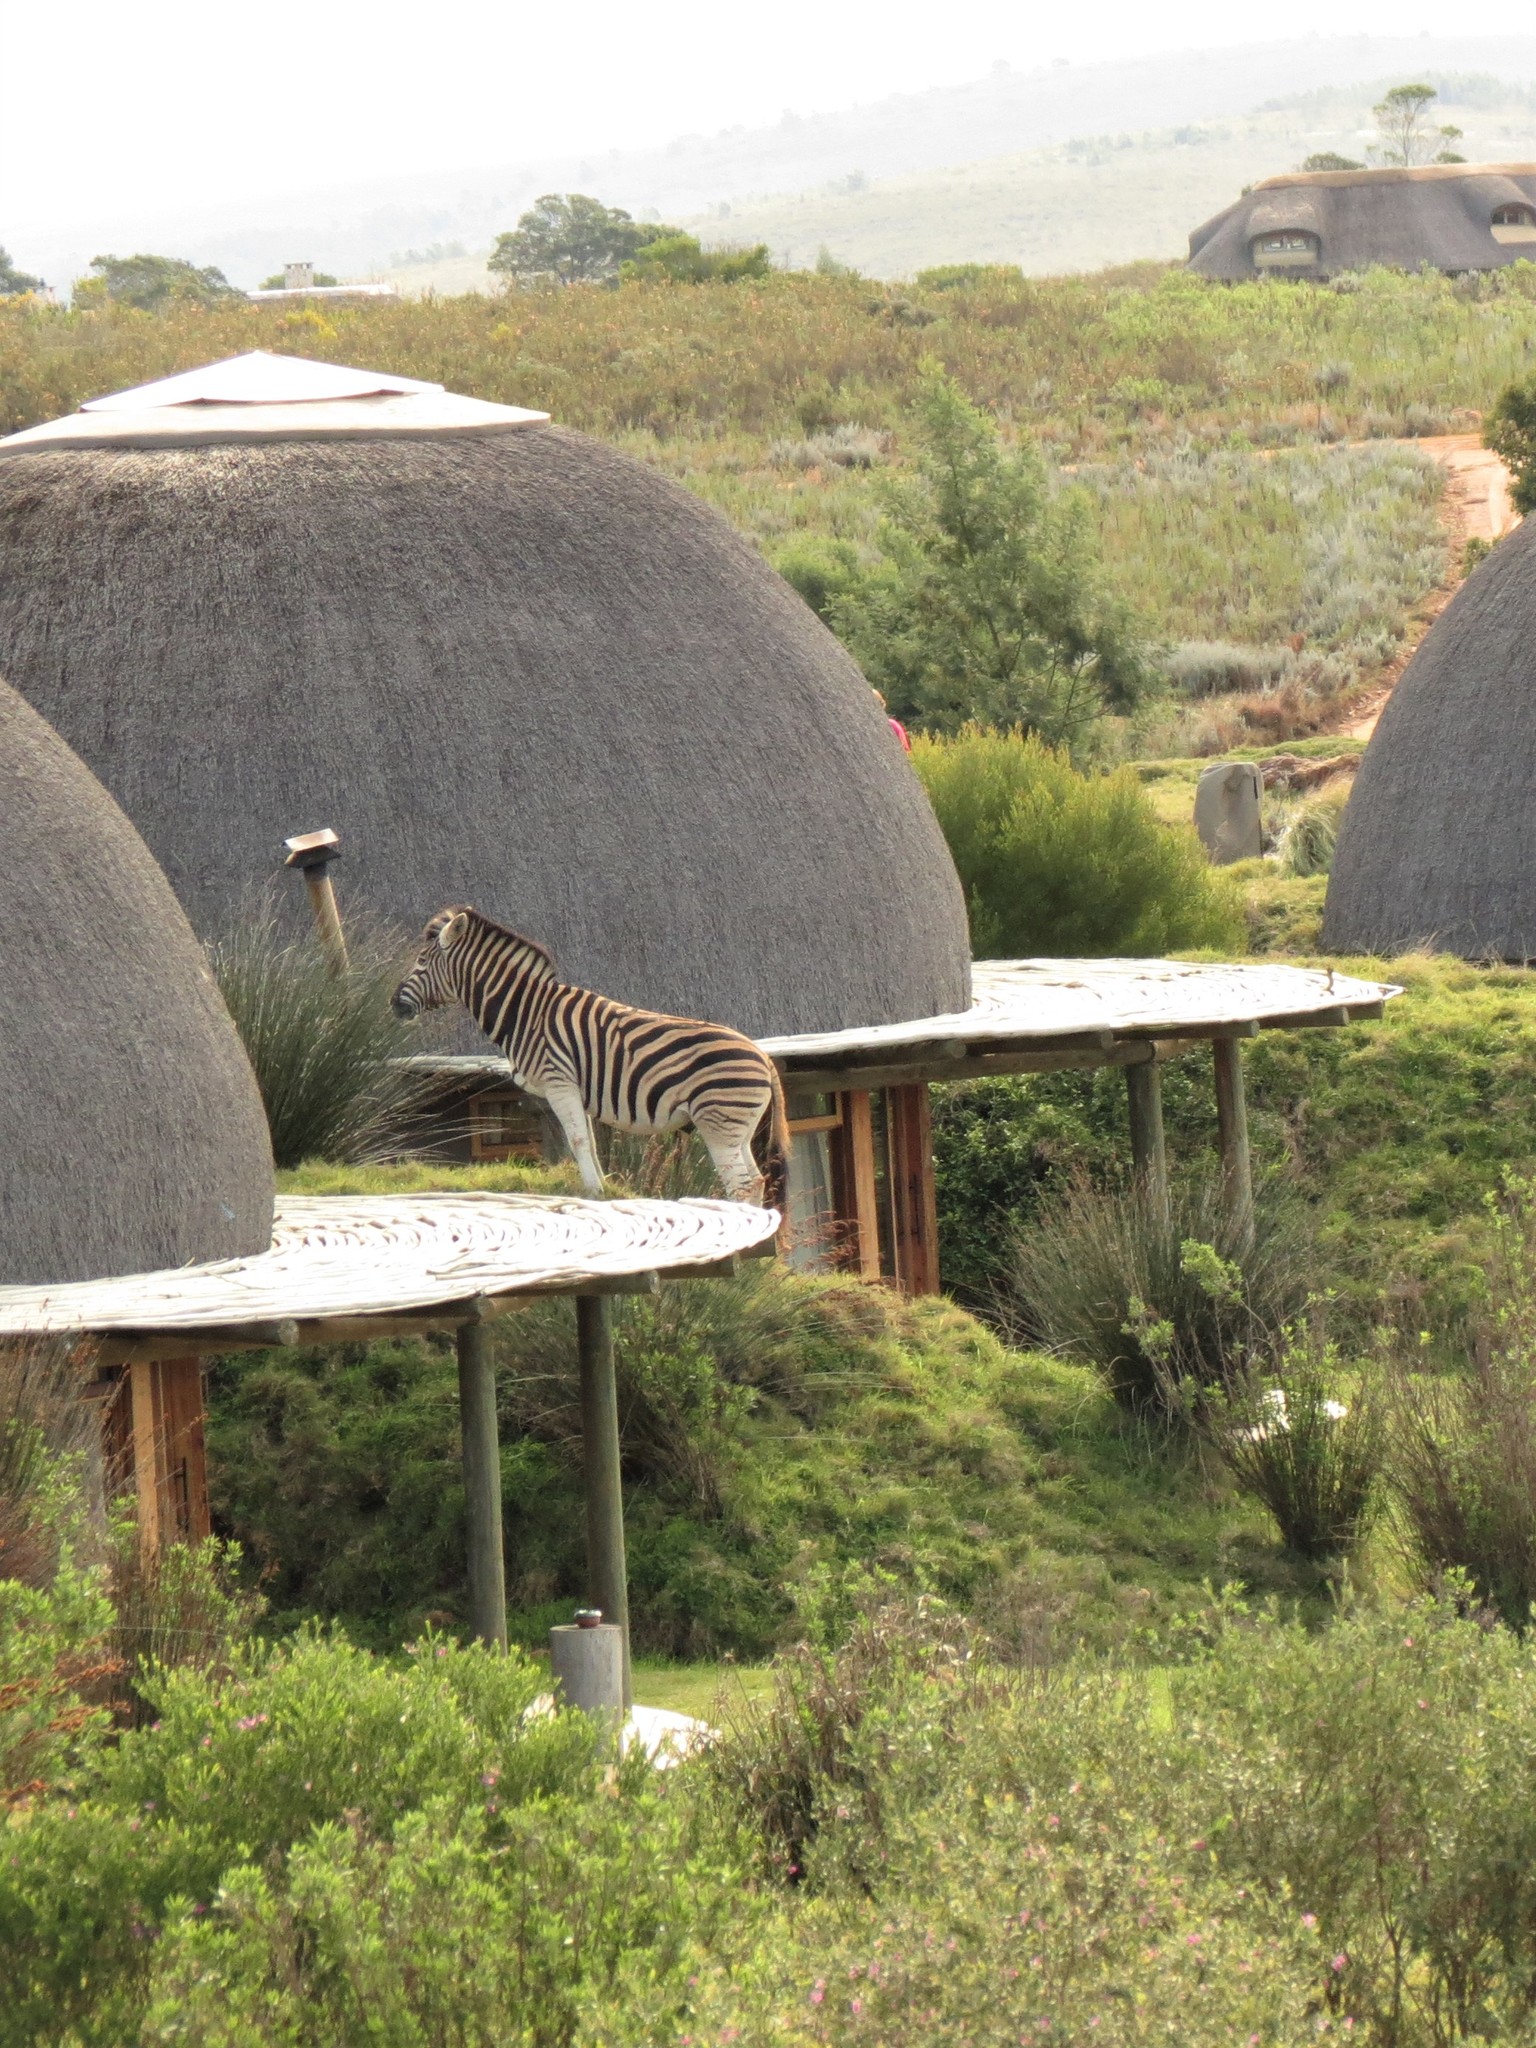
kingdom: Animalia
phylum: Chordata
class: Mammalia
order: Perissodactyla
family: Equidae
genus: Equus
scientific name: Equus quagga
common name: Plains zebra
